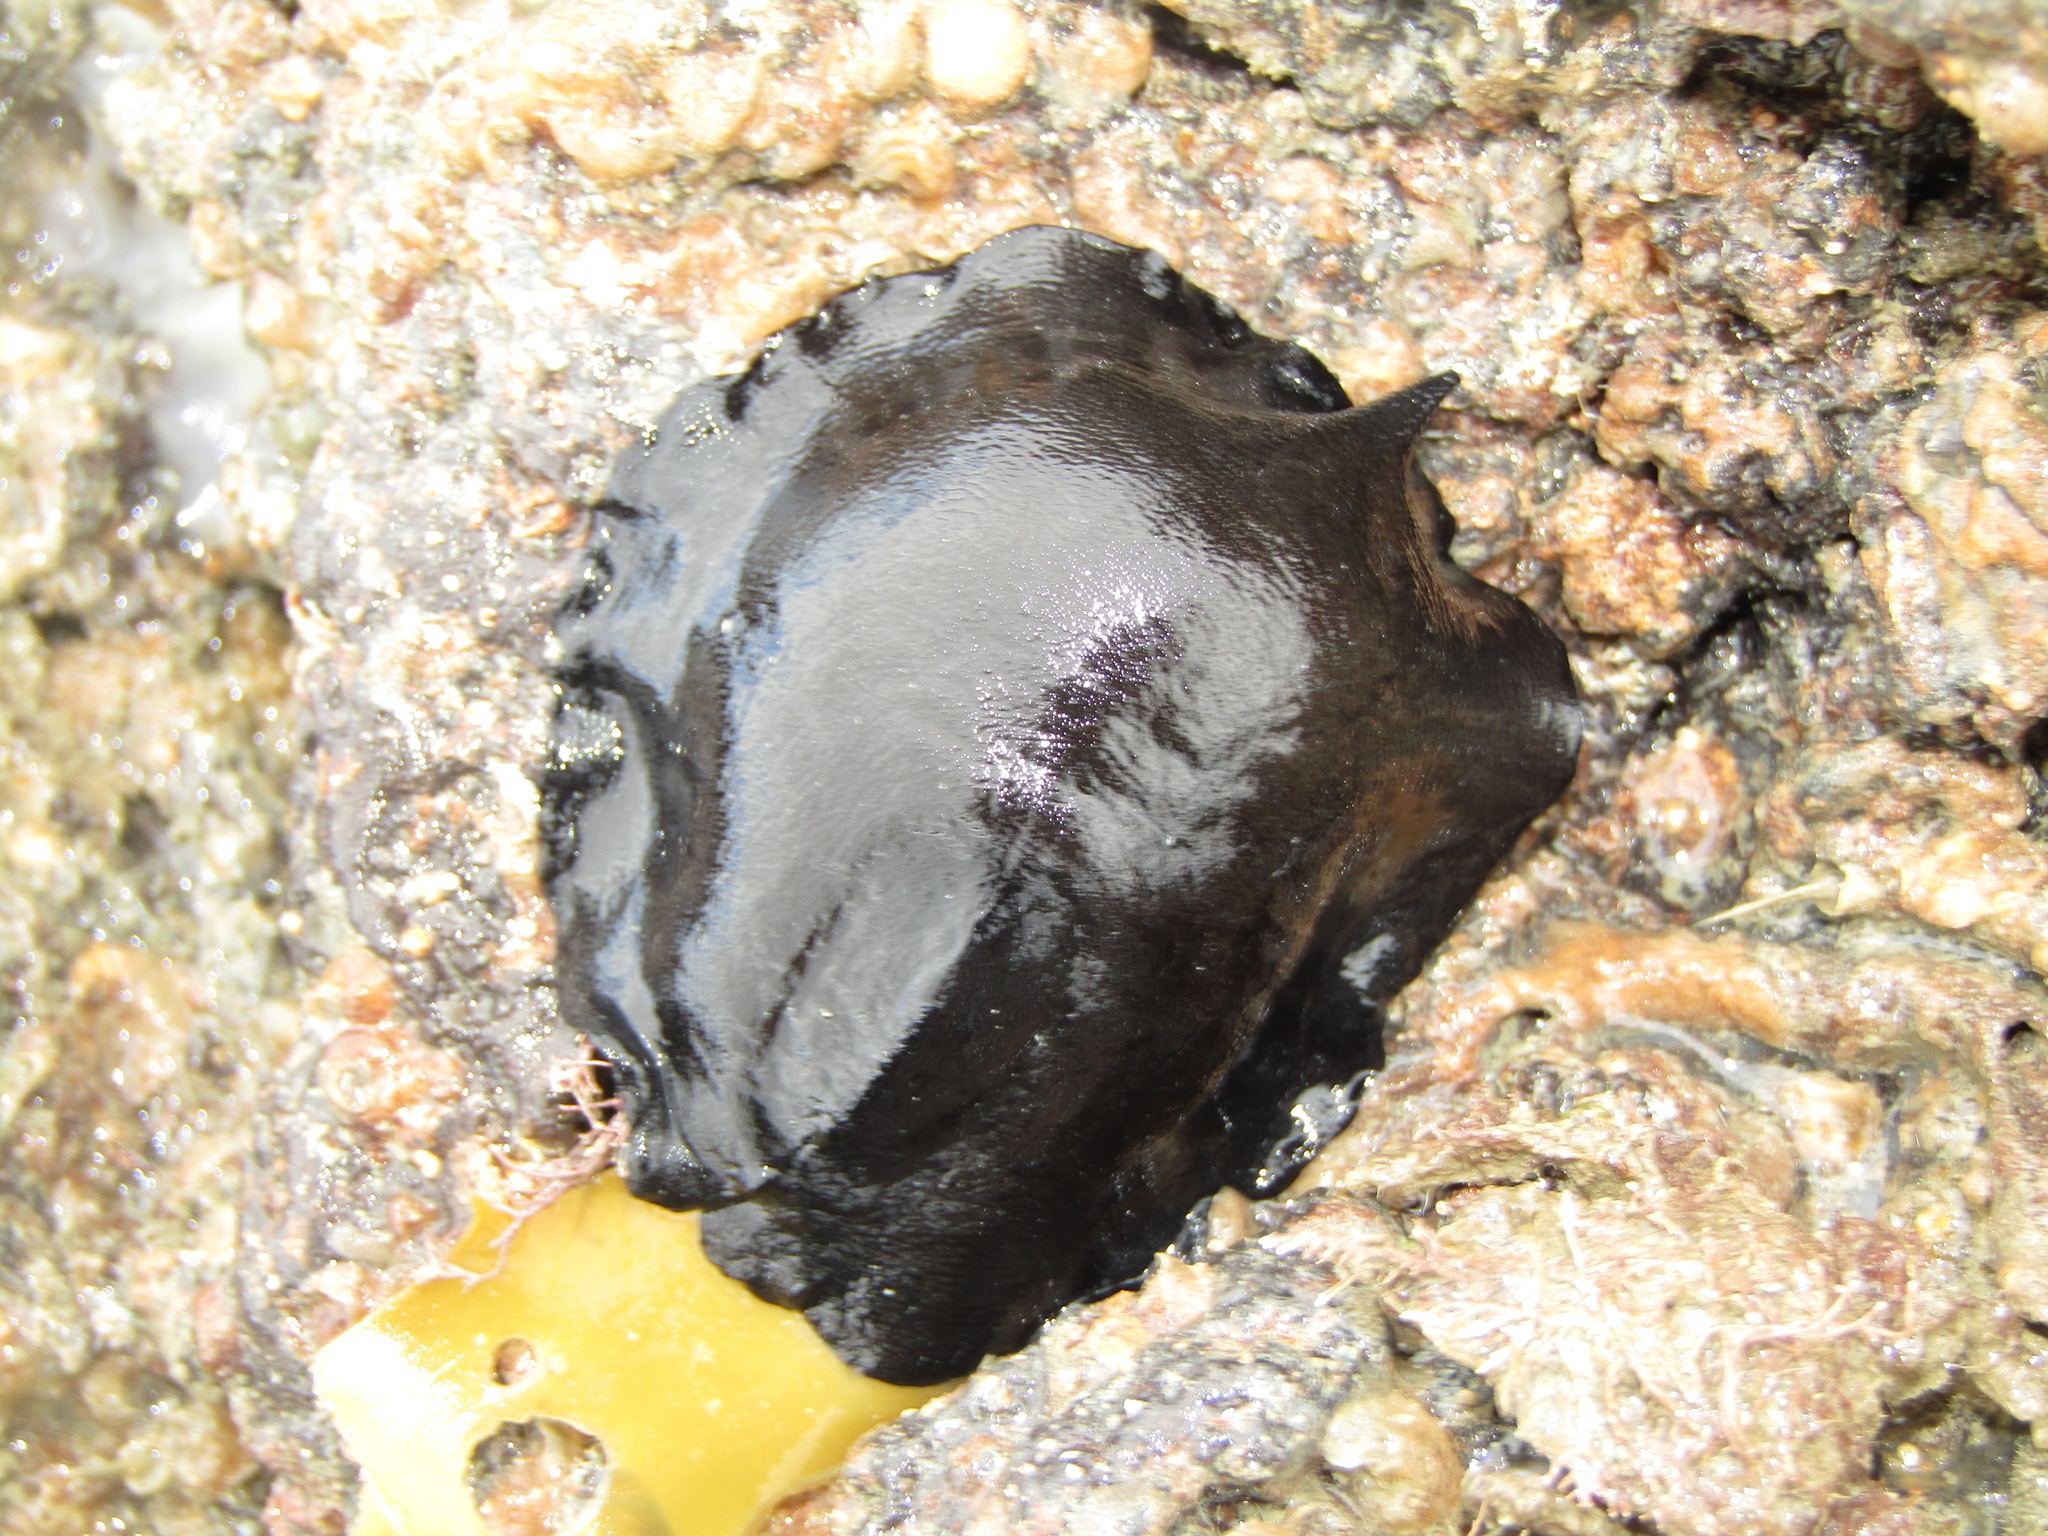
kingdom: Animalia
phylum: Mollusca
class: Gastropoda
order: Lepetellida
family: Fissurellidae
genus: Scutus
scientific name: Scutus breviculus
